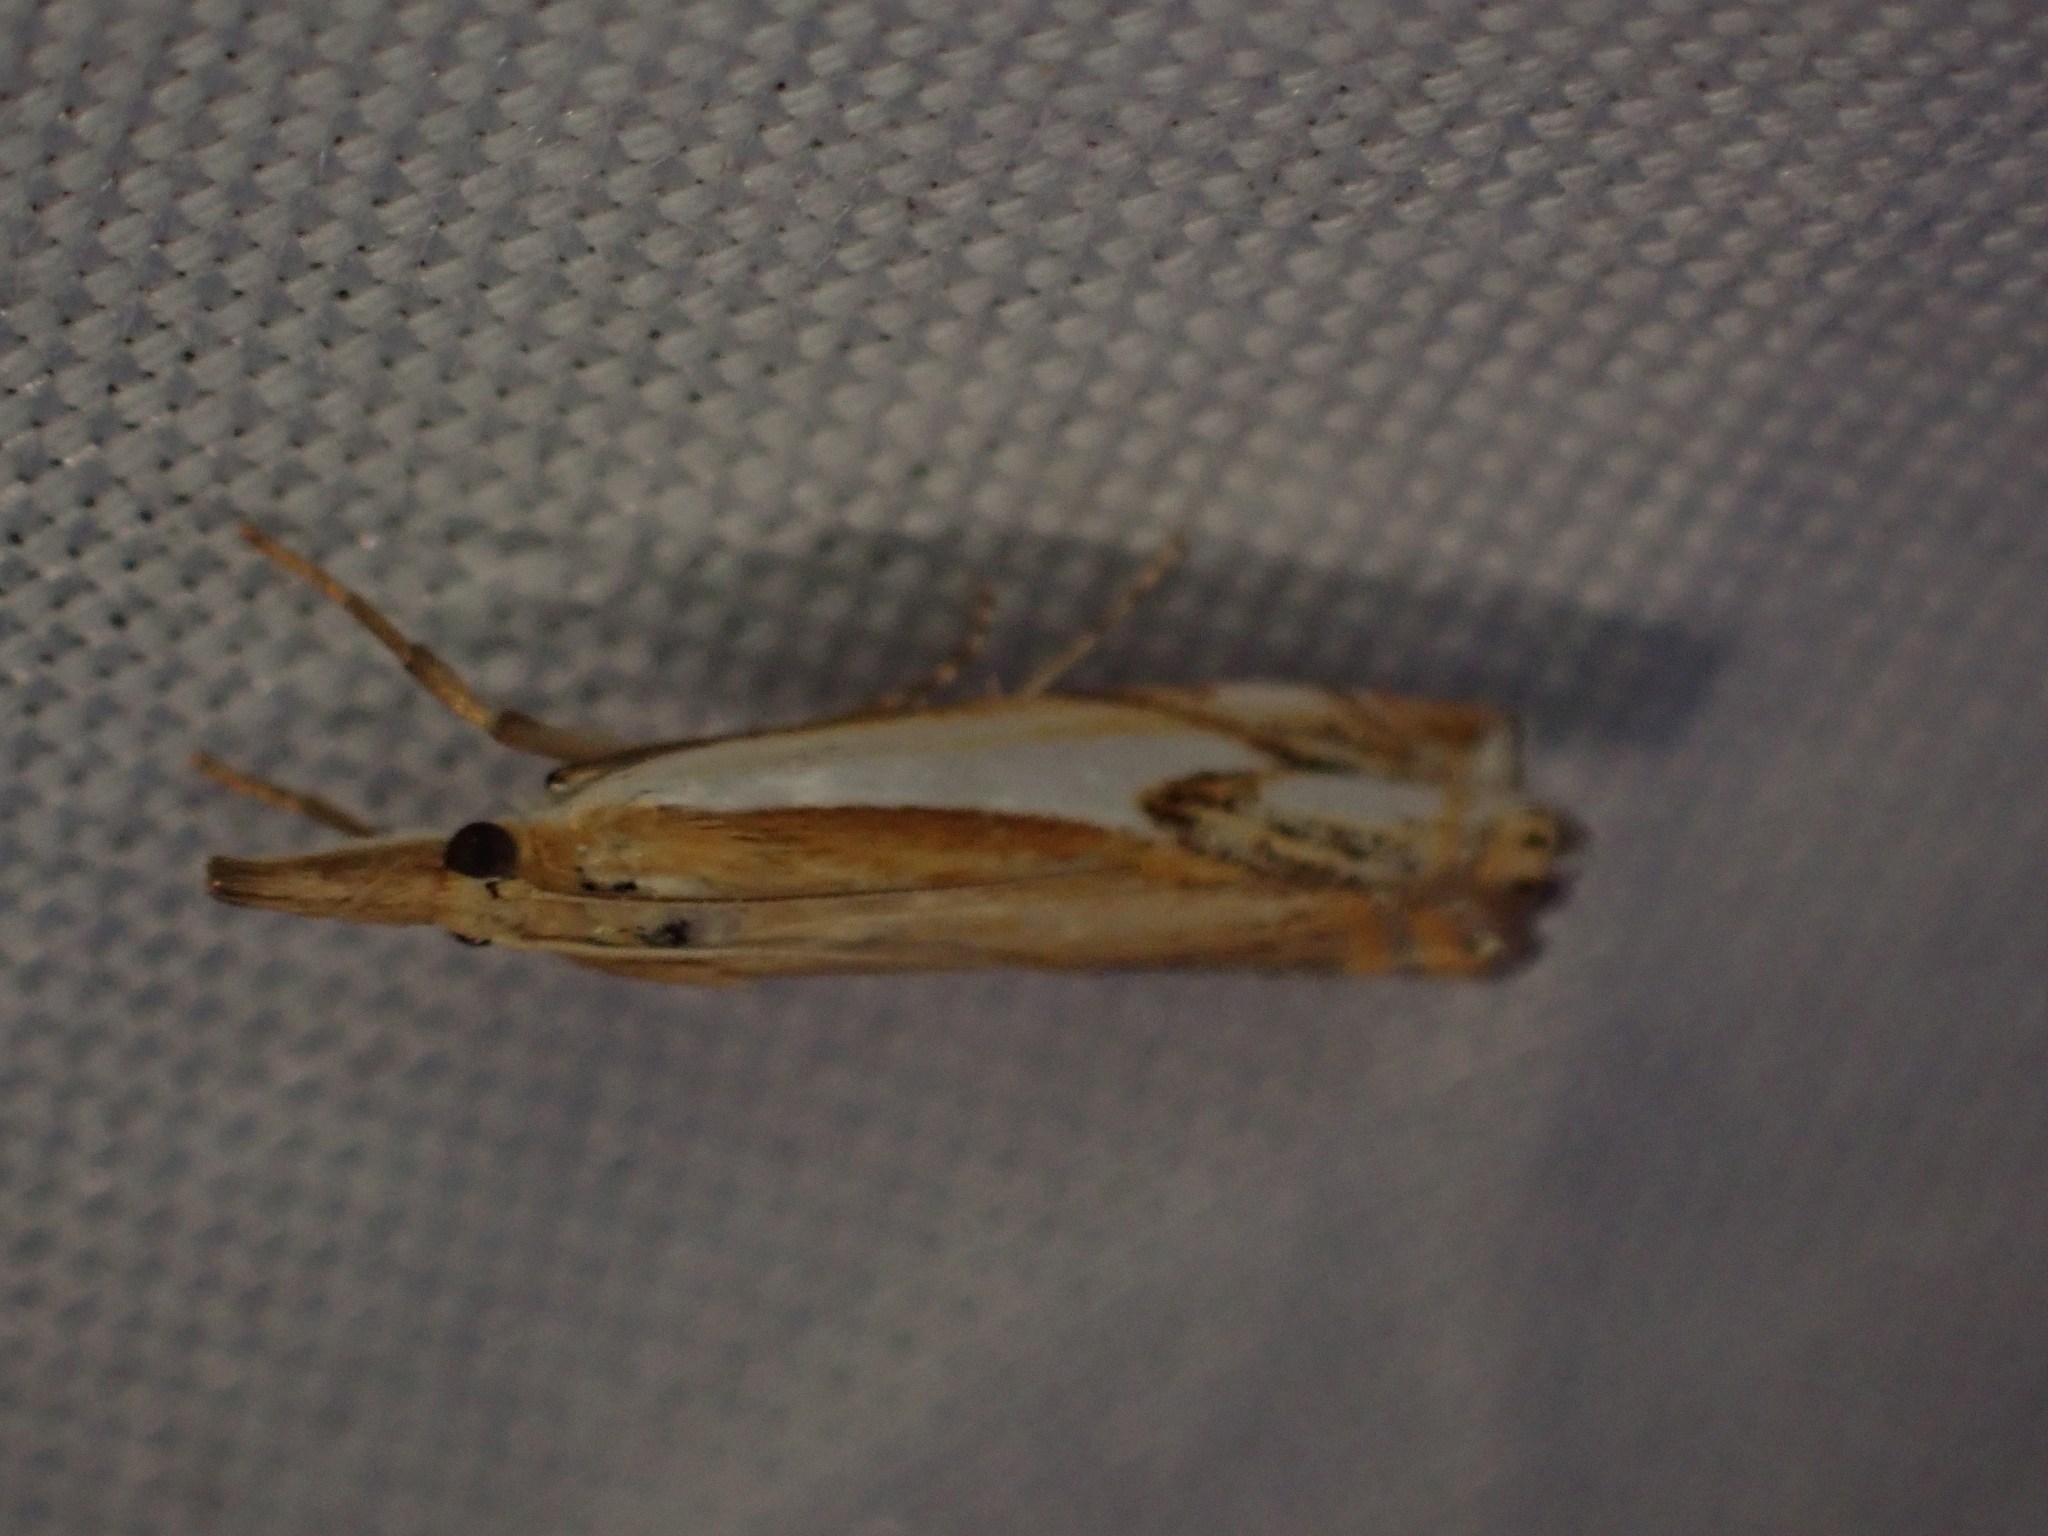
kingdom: Animalia
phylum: Arthropoda
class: Insecta
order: Lepidoptera
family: Crambidae
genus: Crambus
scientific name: Crambus agitatellus
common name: Double-banded grass-veneer
